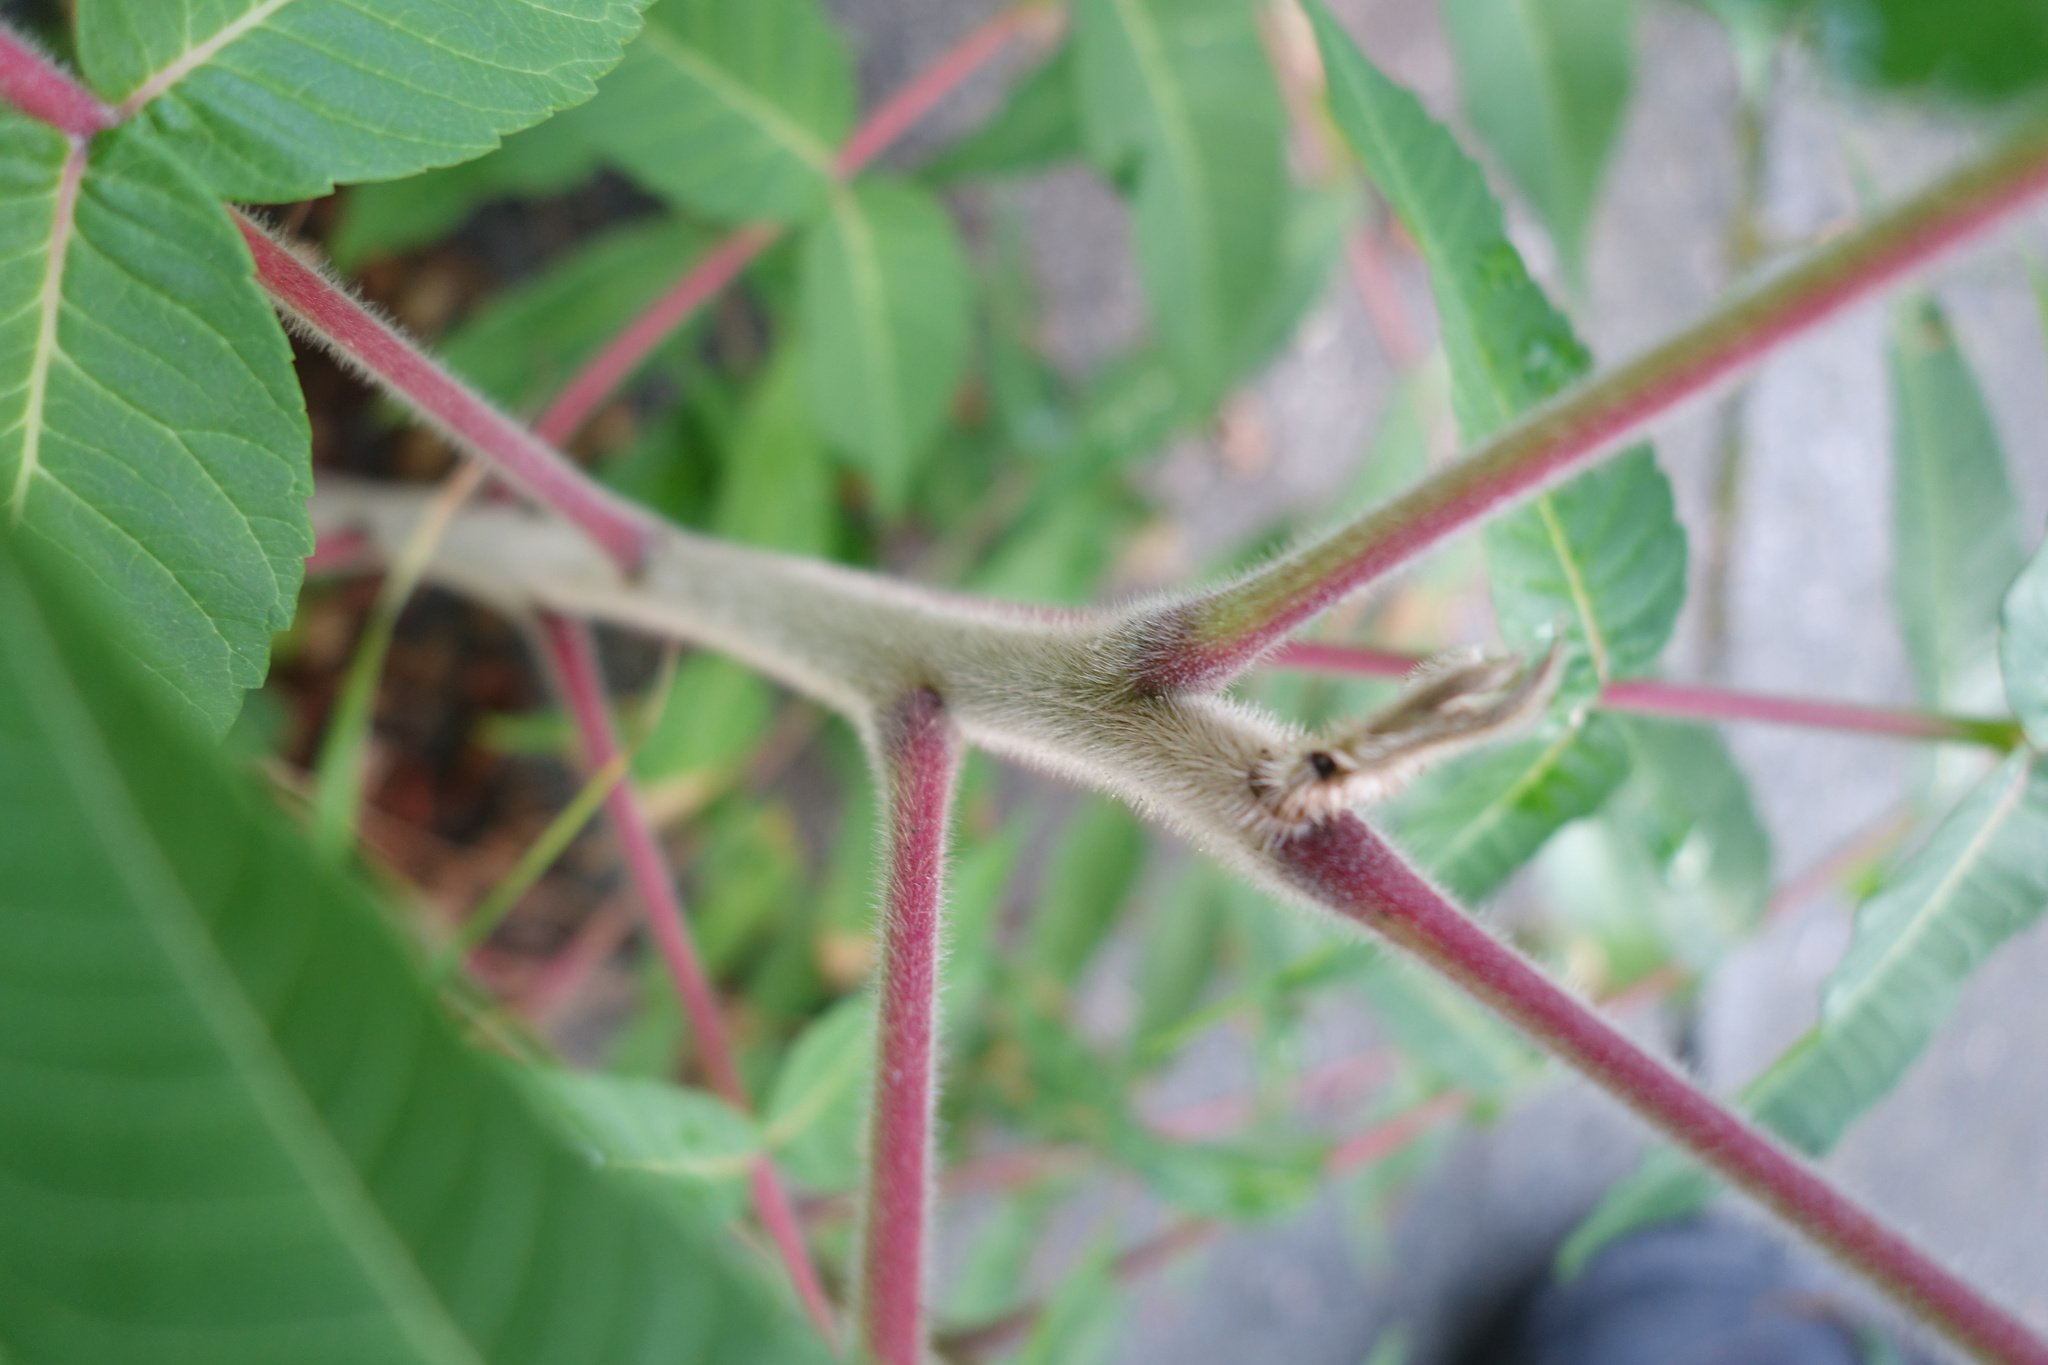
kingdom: Plantae
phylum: Tracheophyta
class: Magnoliopsida
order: Sapindales
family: Anacardiaceae
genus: Rhus
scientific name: Rhus typhina
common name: Staghorn sumac
